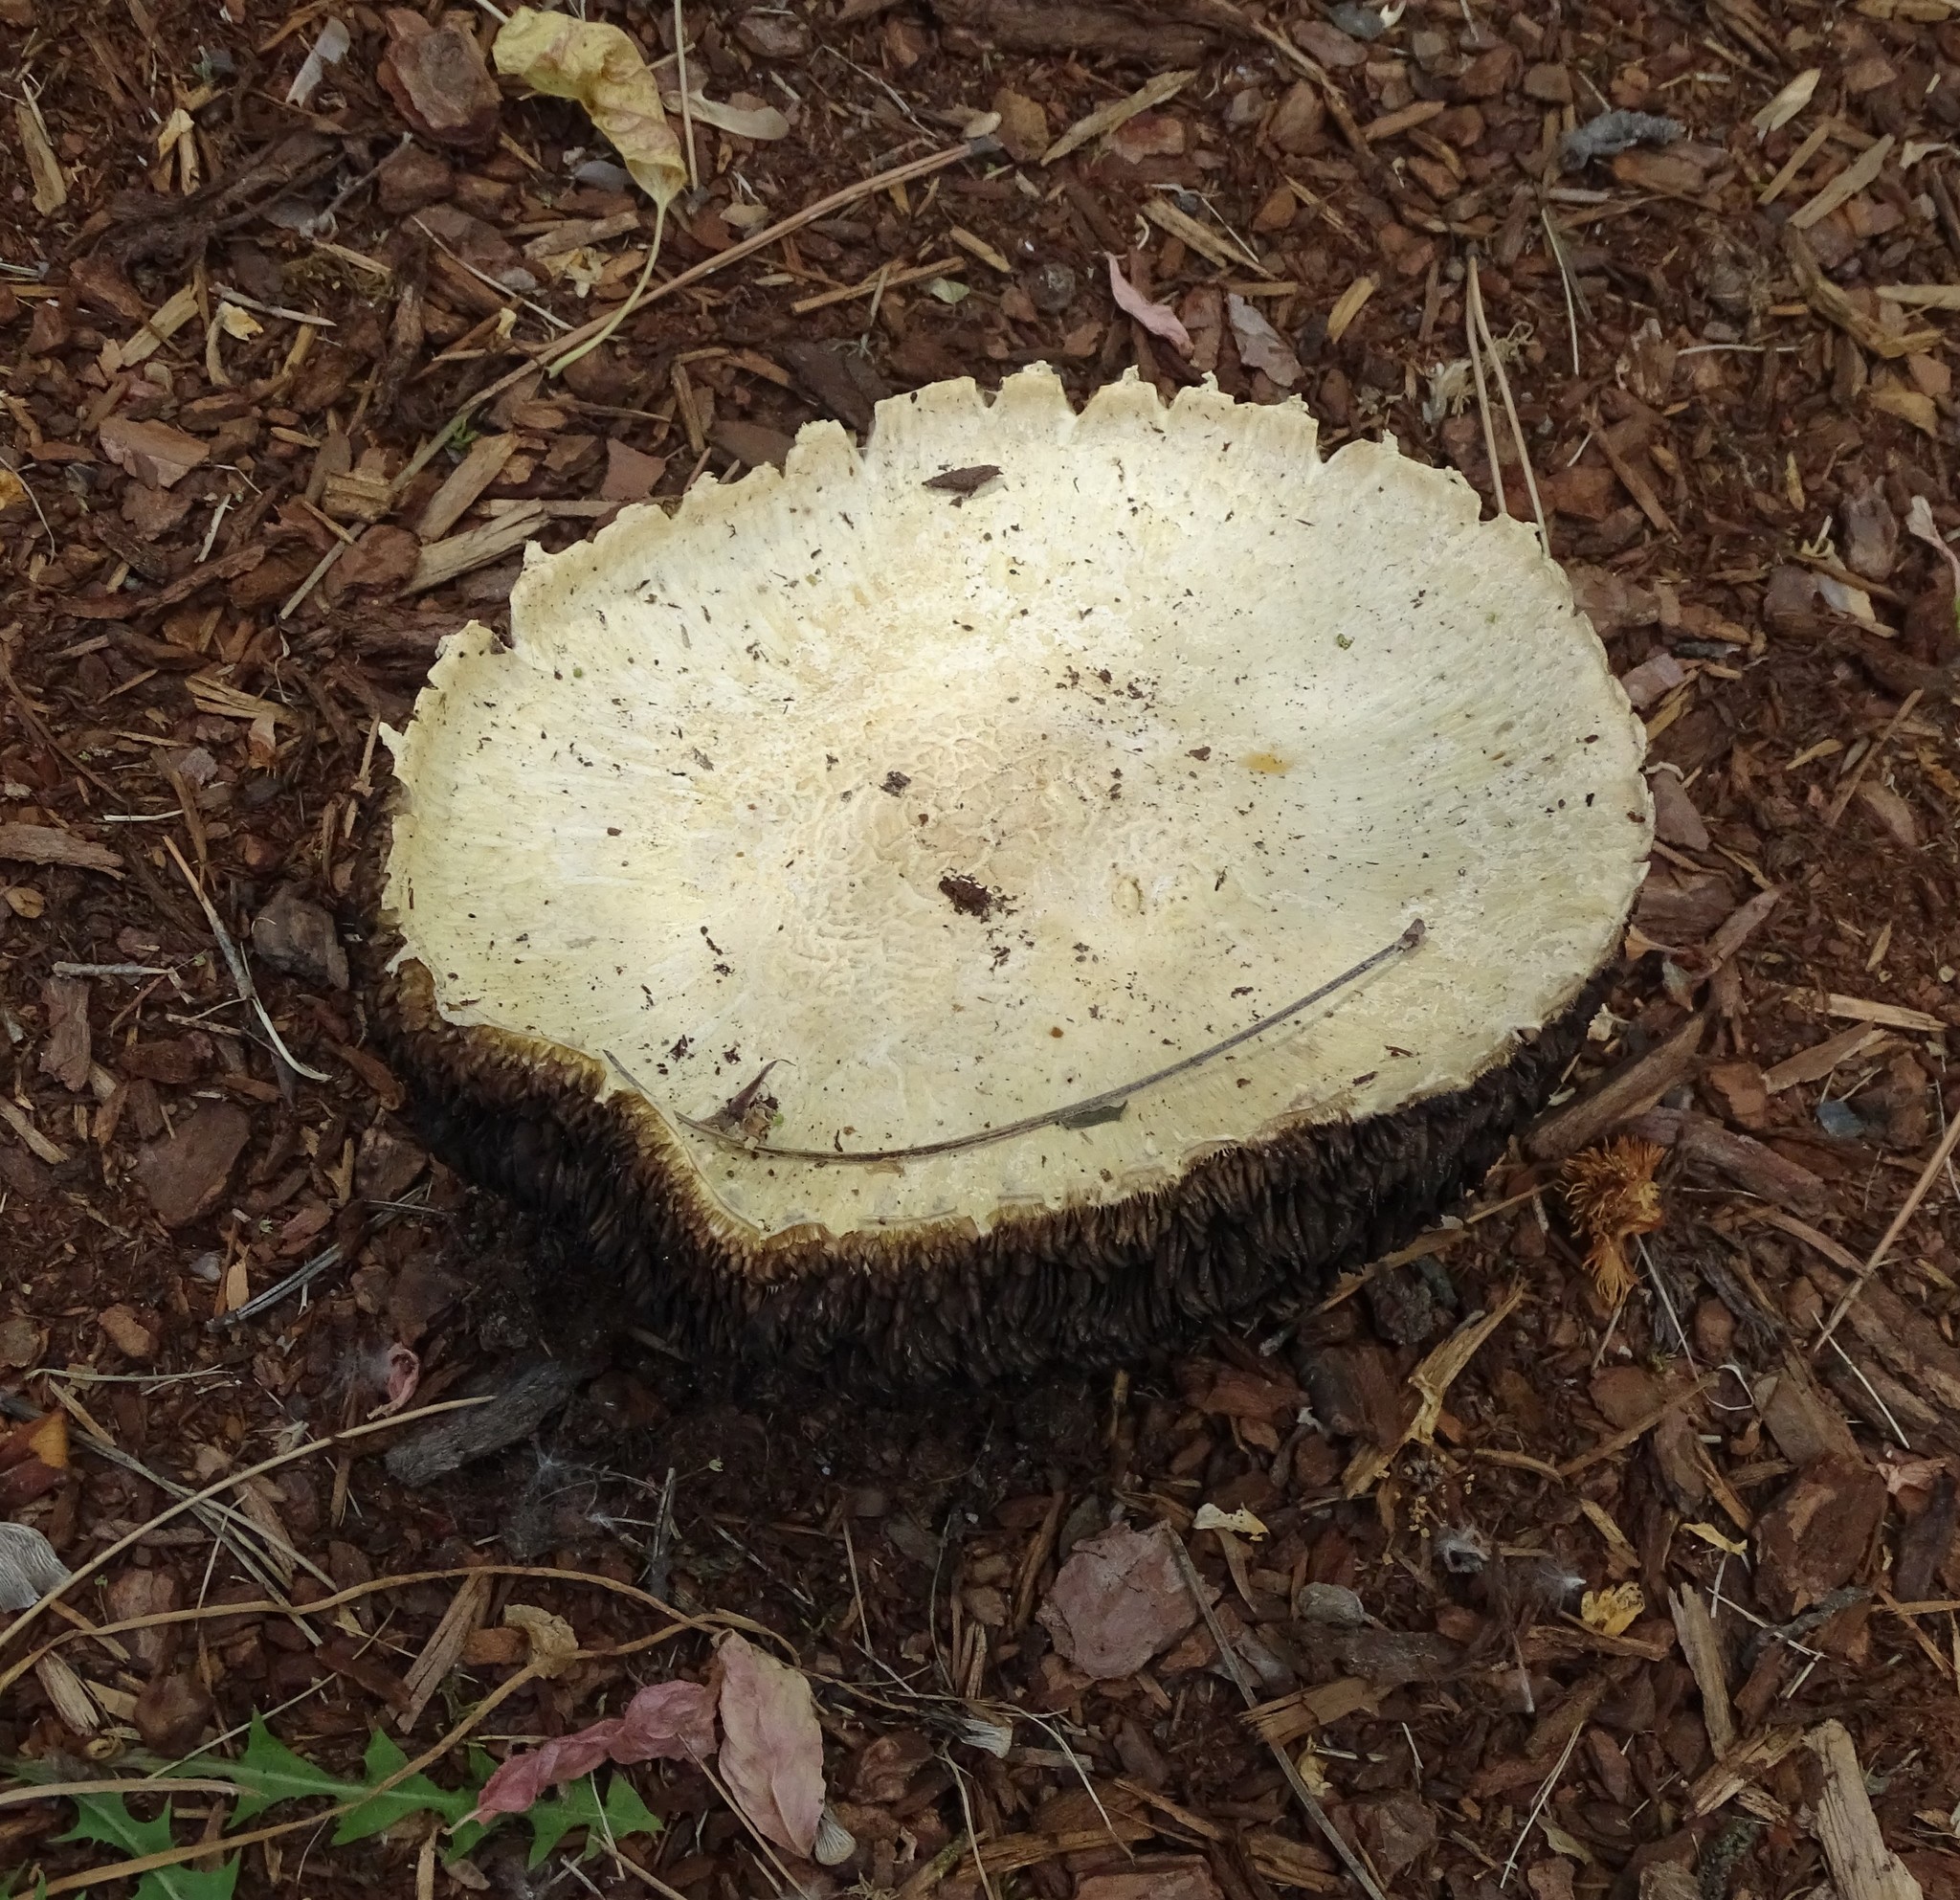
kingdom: Fungi
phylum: Basidiomycota
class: Agaricomycetes
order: Agaricales
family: Agaricaceae
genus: Agaricus
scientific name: Agaricus arvensis
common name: Horse mushroom
